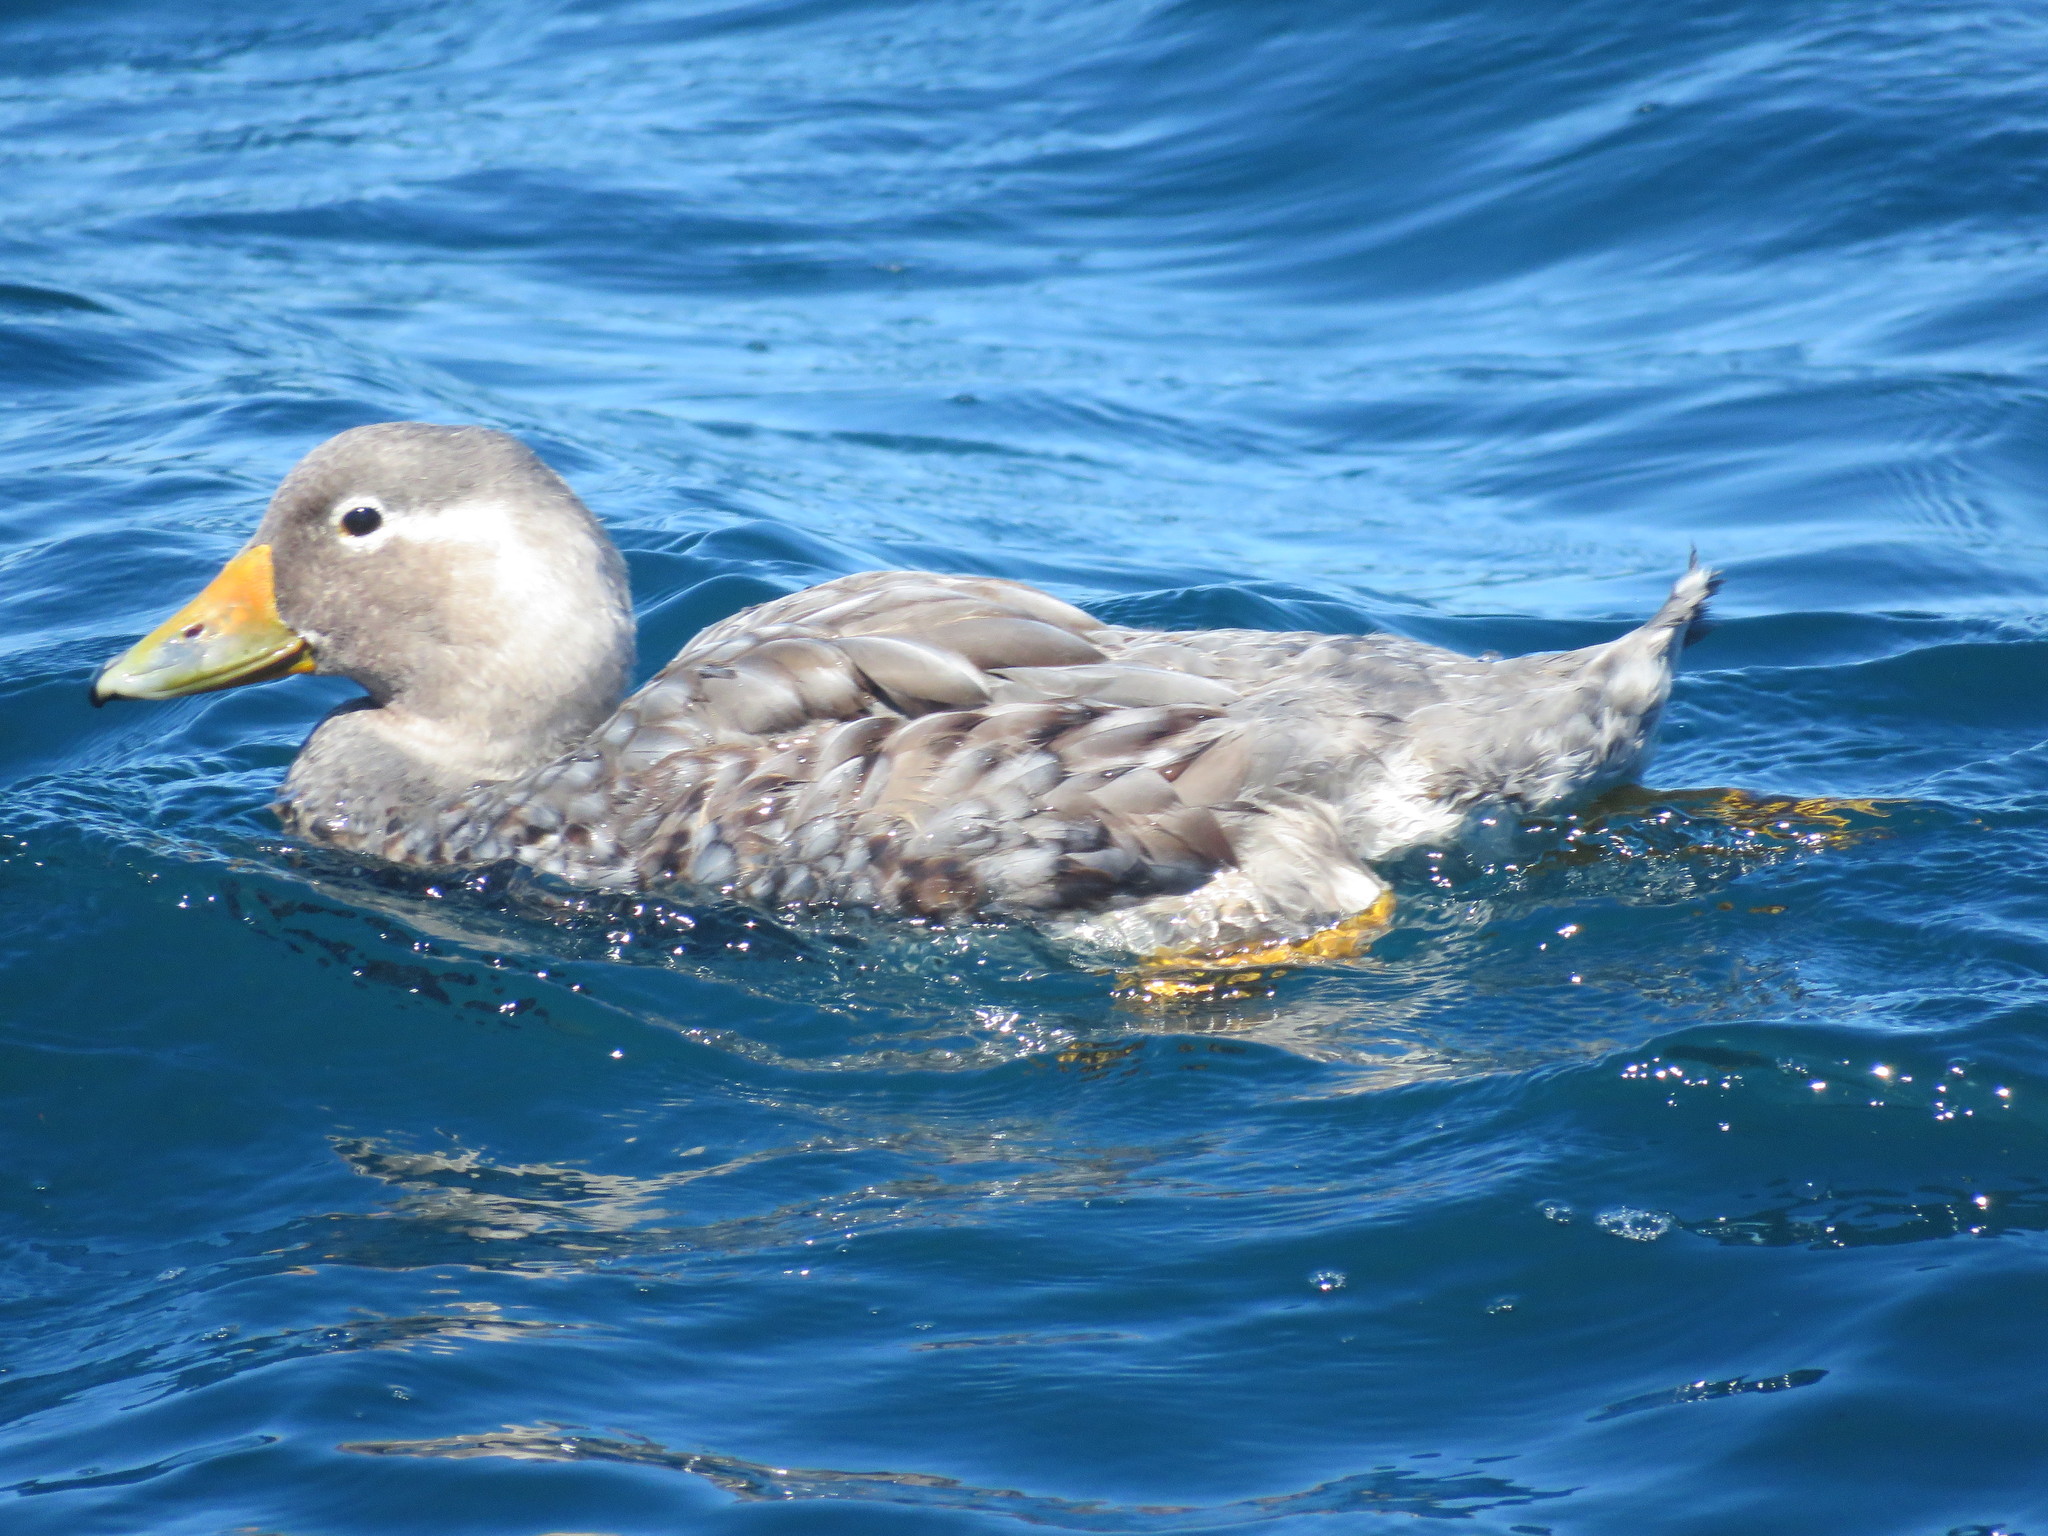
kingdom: Animalia
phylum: Chordata
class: Aves
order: Anseriformes
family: Anatidae
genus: Tachyeres
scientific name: Tachyeres leucocephalus
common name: Chubut steamer duck
